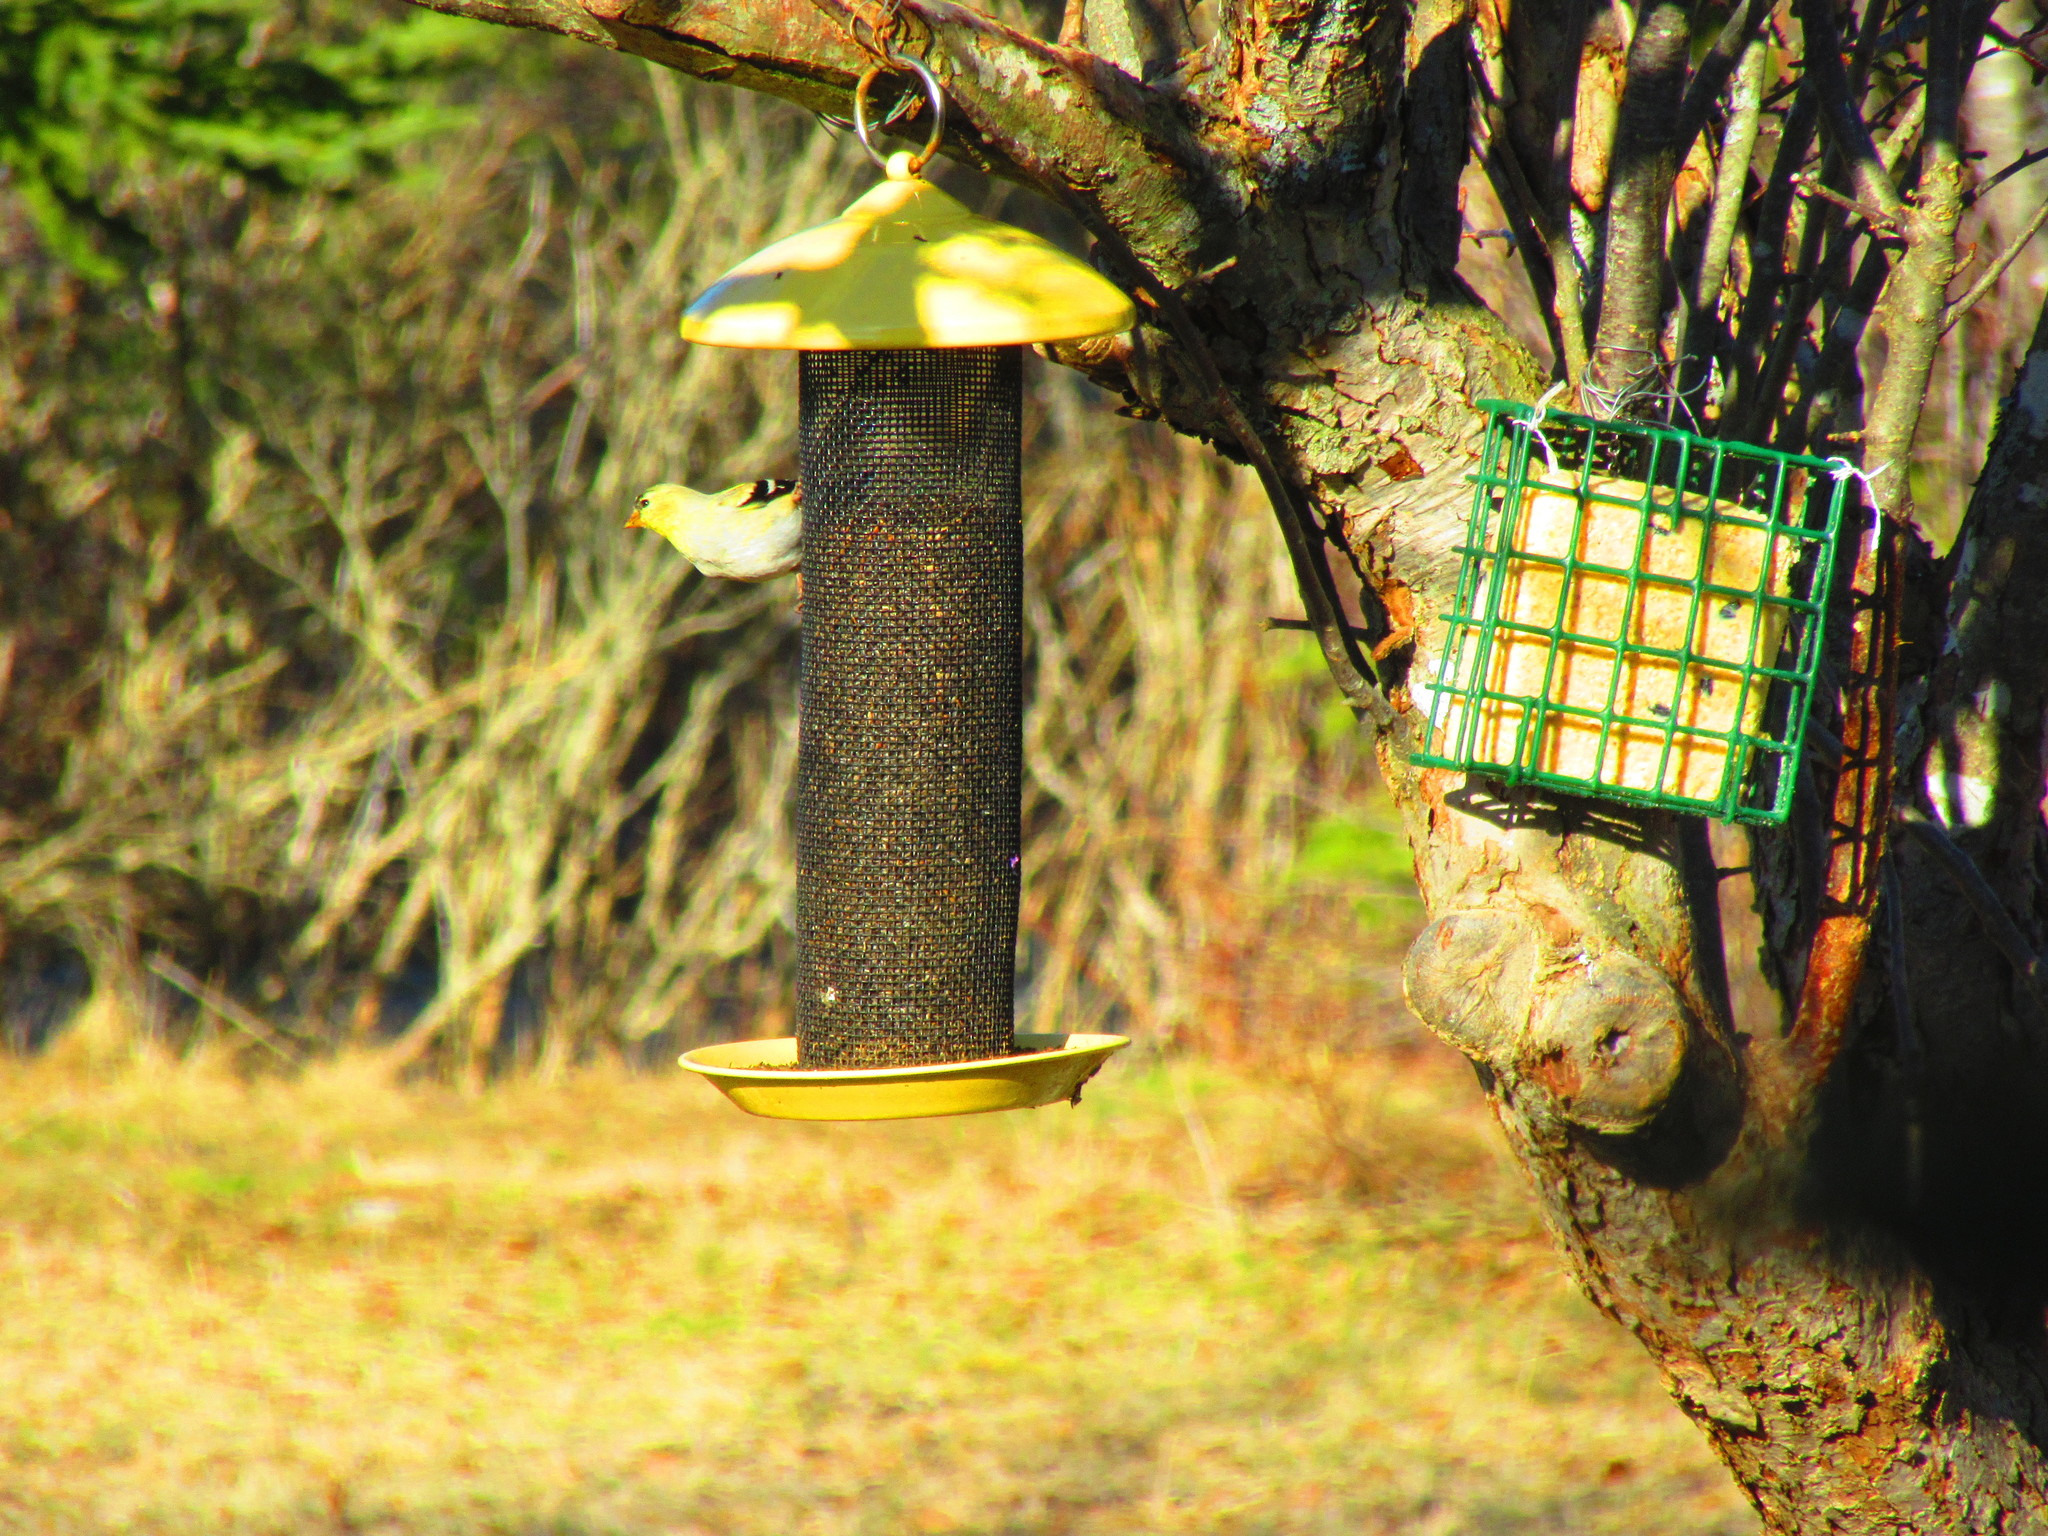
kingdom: Animalia
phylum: Chordata
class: Aves
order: Passeriformes
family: Fringillidae
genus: Spinus
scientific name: Spinus tristis
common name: American goldfinch
